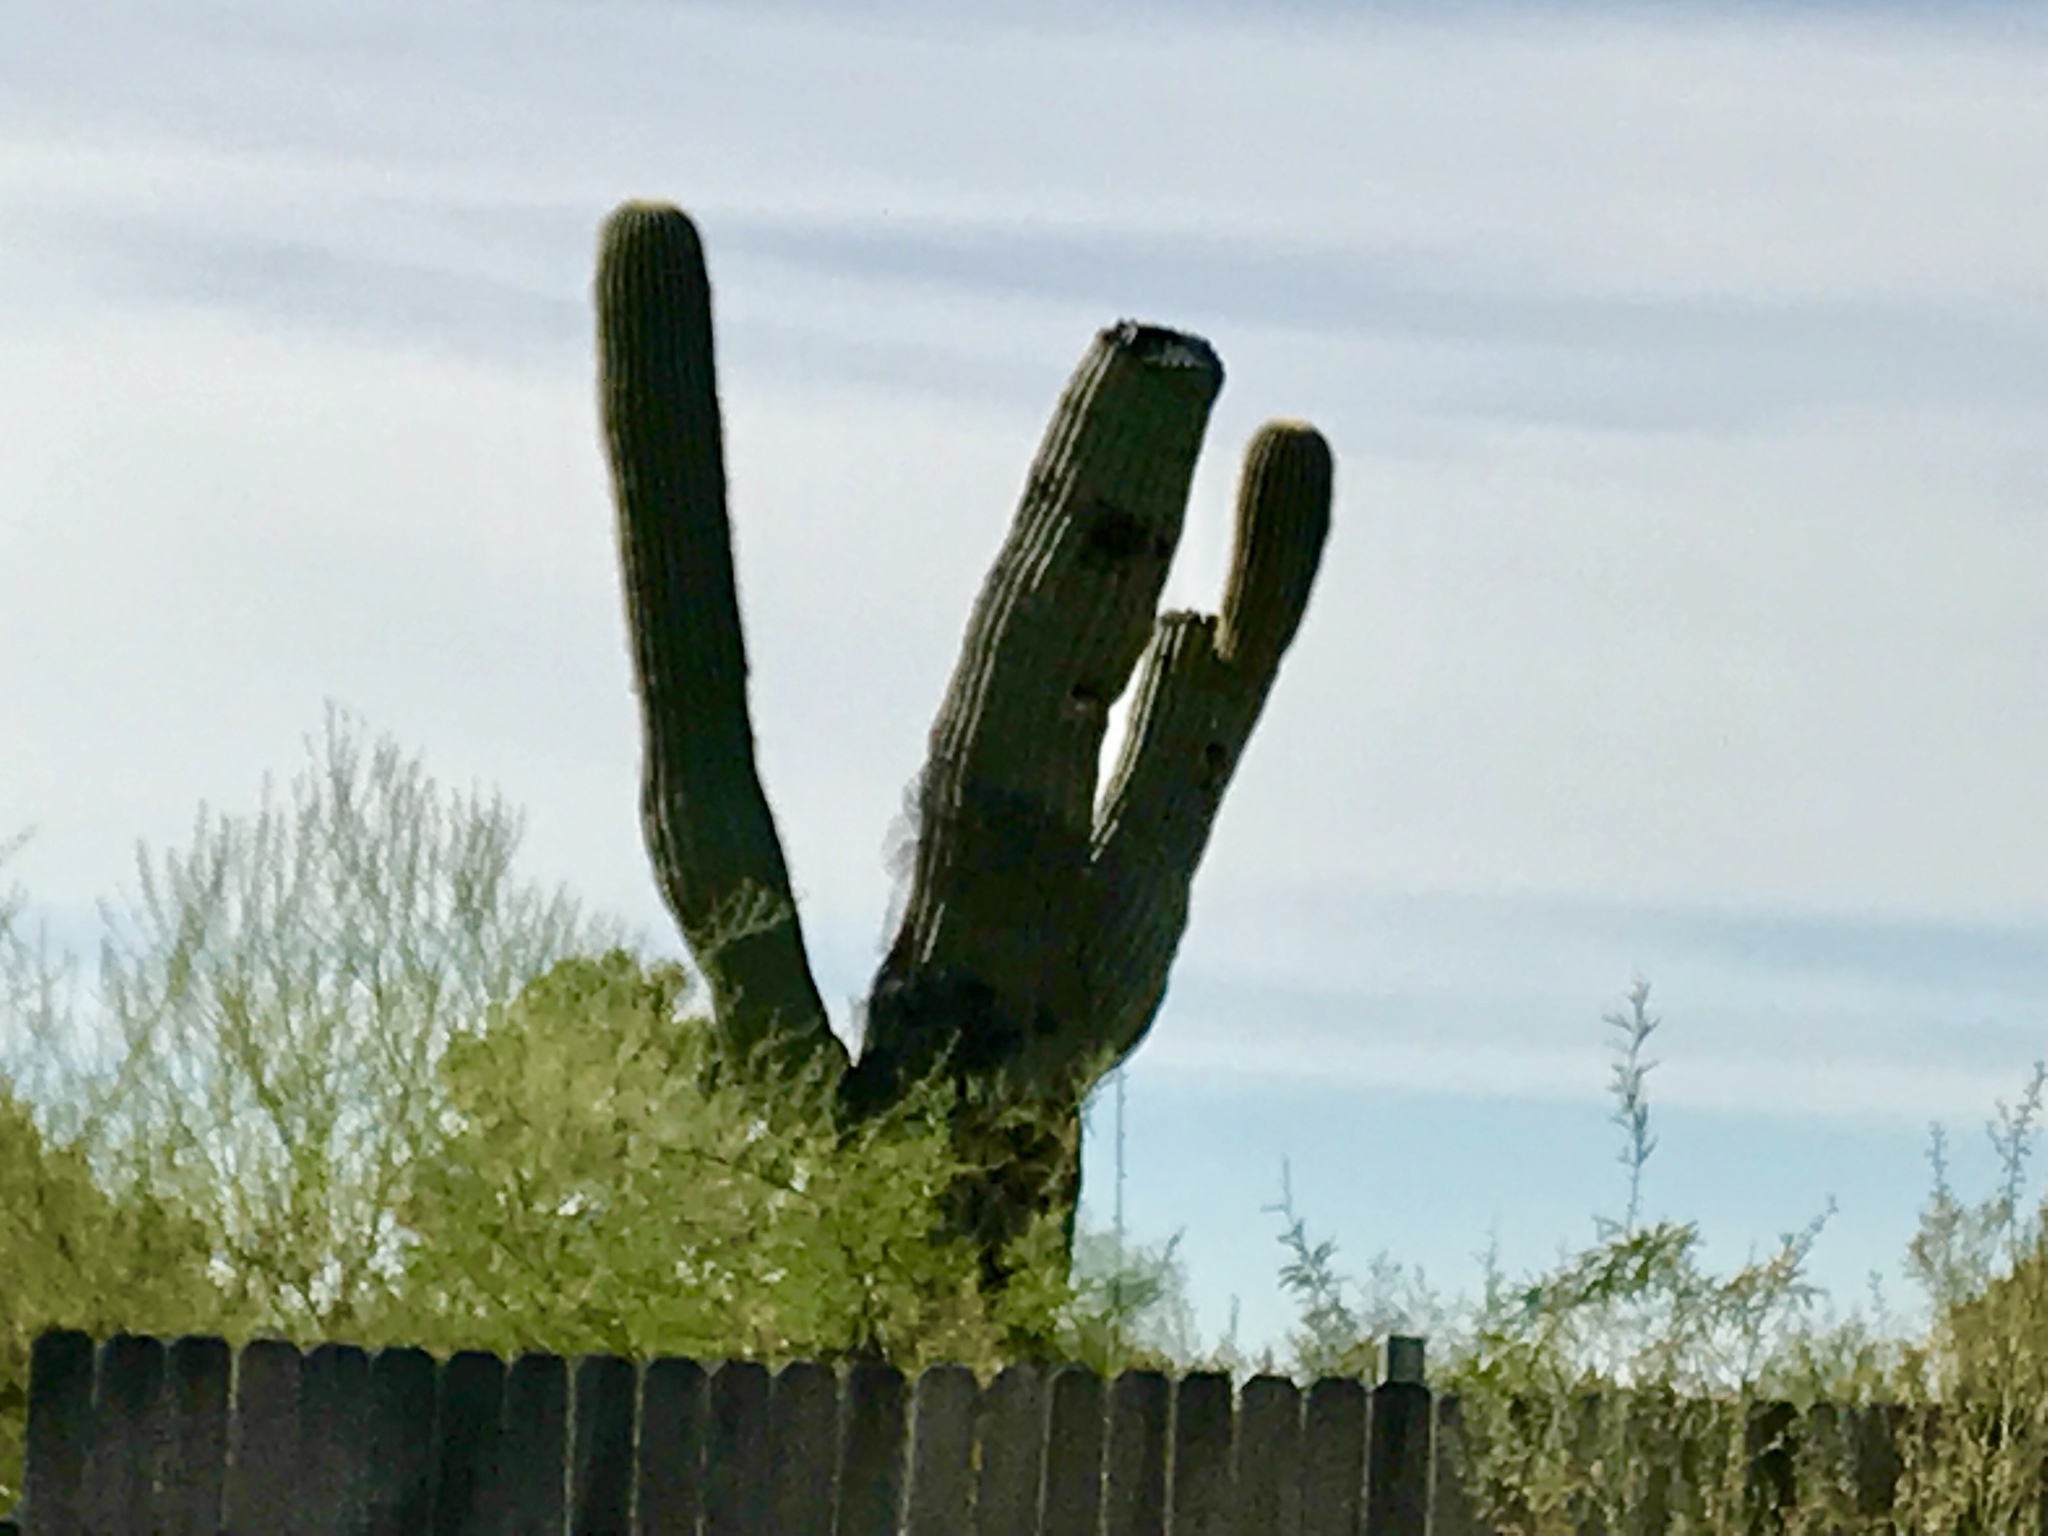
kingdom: Plantae
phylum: Tracheophyta
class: Magnoliopsida
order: Caryophyllales
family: Cactaceae
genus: Carnegiea
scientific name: Carnegiea gigantea
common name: Saguaro
